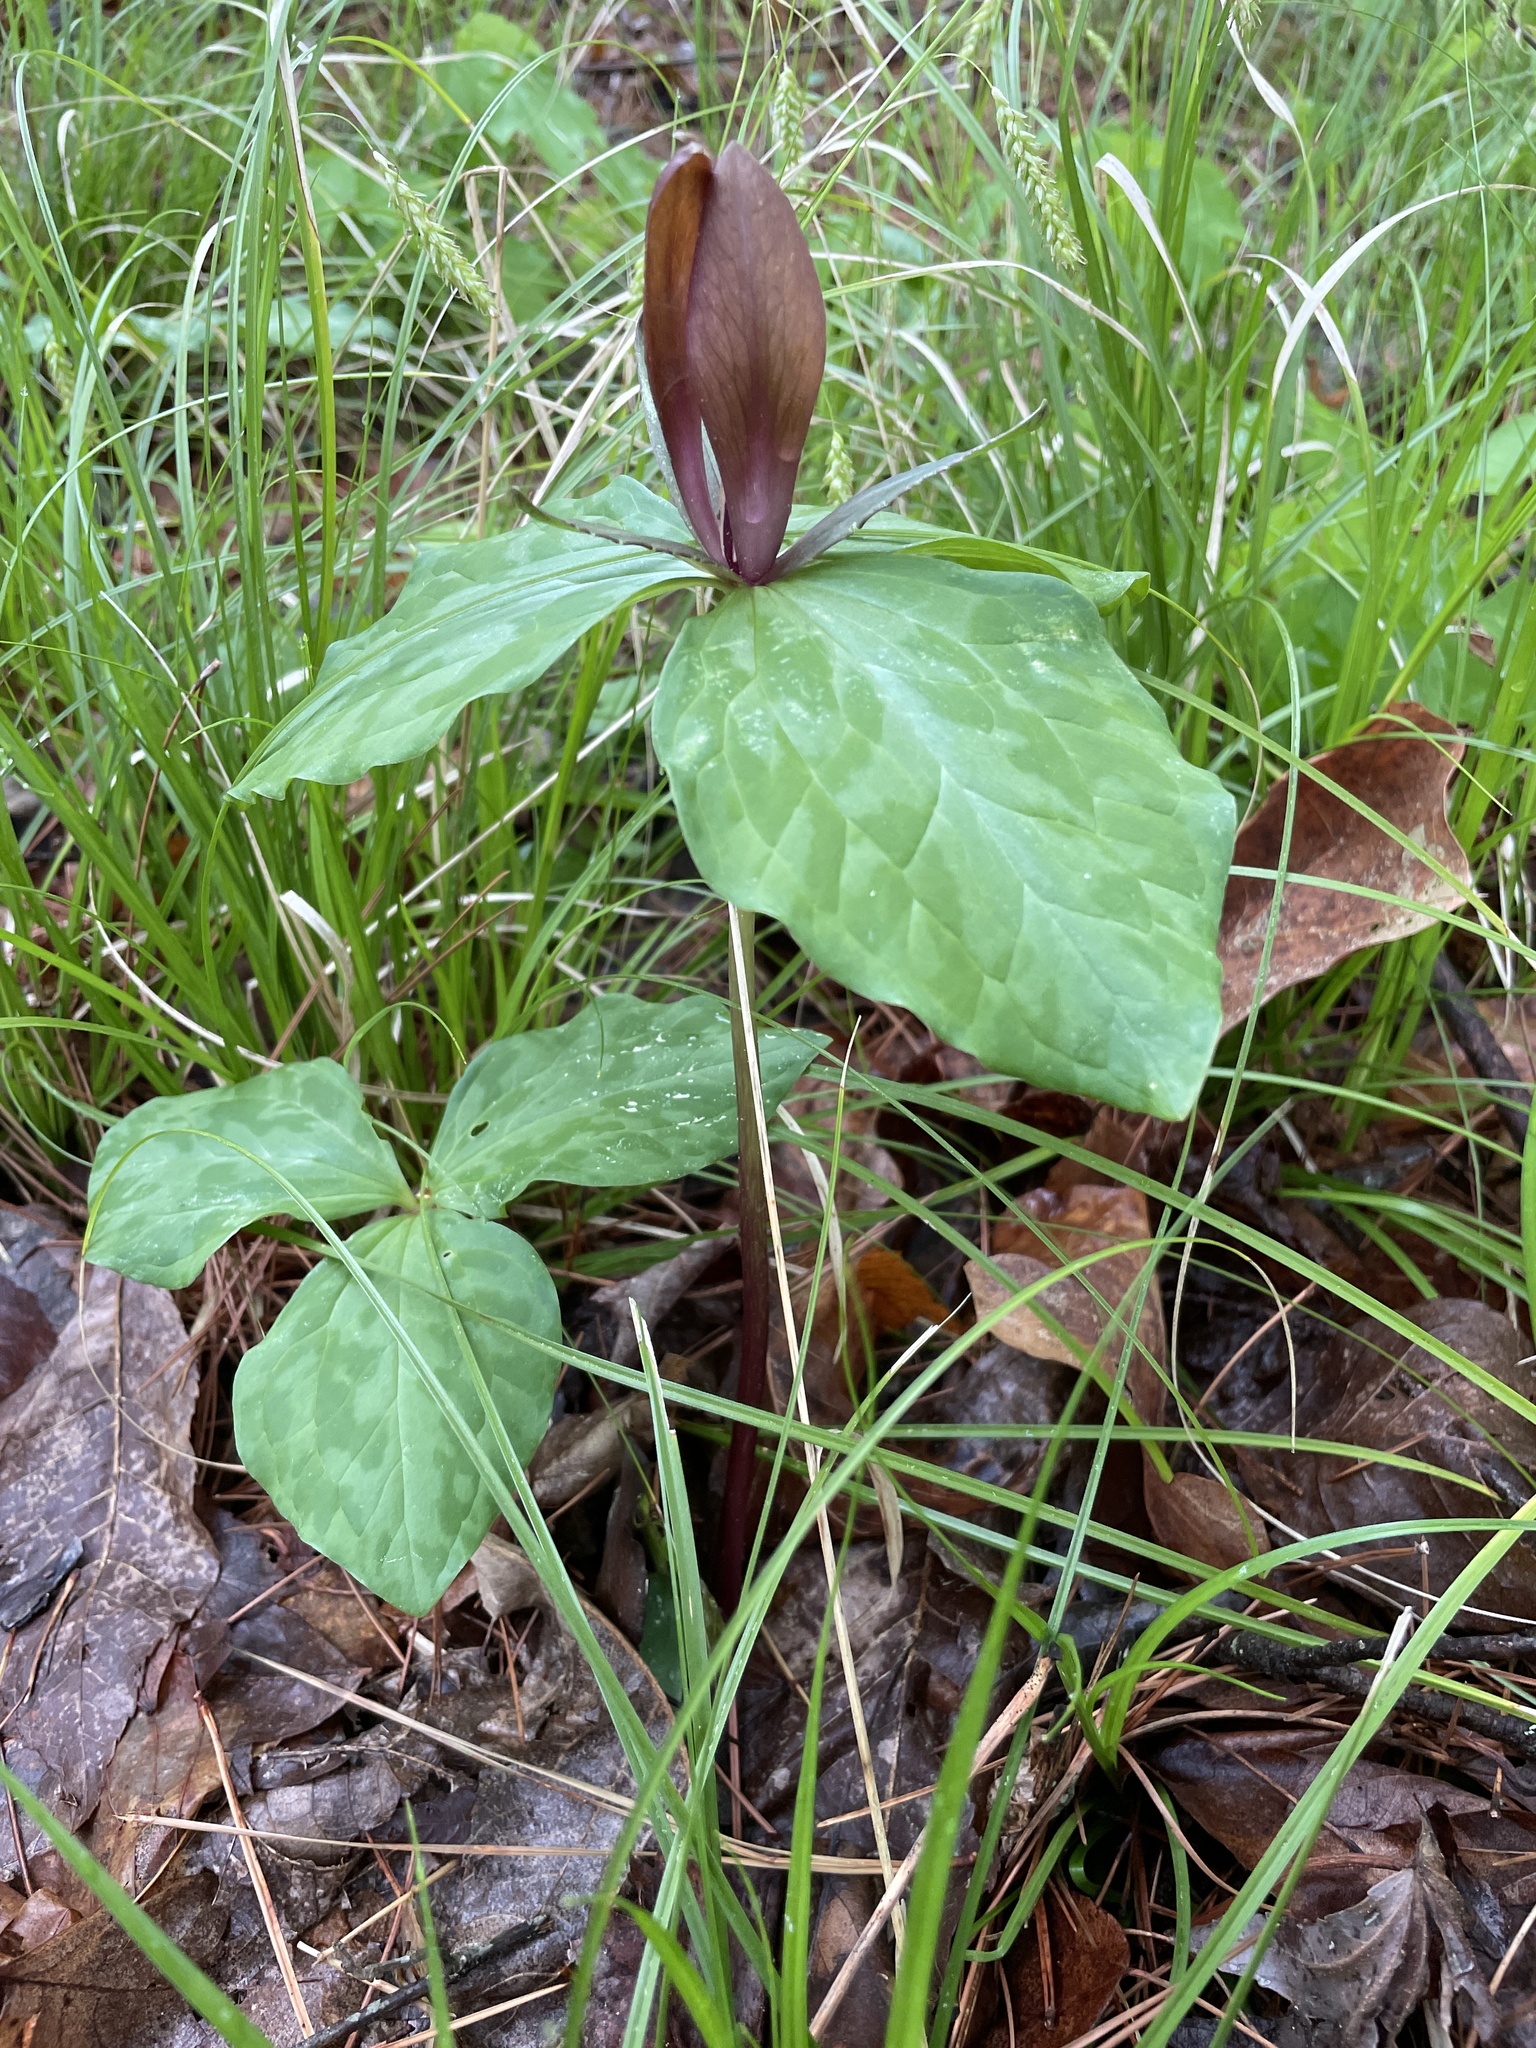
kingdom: Plantae
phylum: Tracheophyta
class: Liliopsida
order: Liliales
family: Melanthiaceae
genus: Trillium
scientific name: Trillium cuneatum
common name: Cuneate trillium
